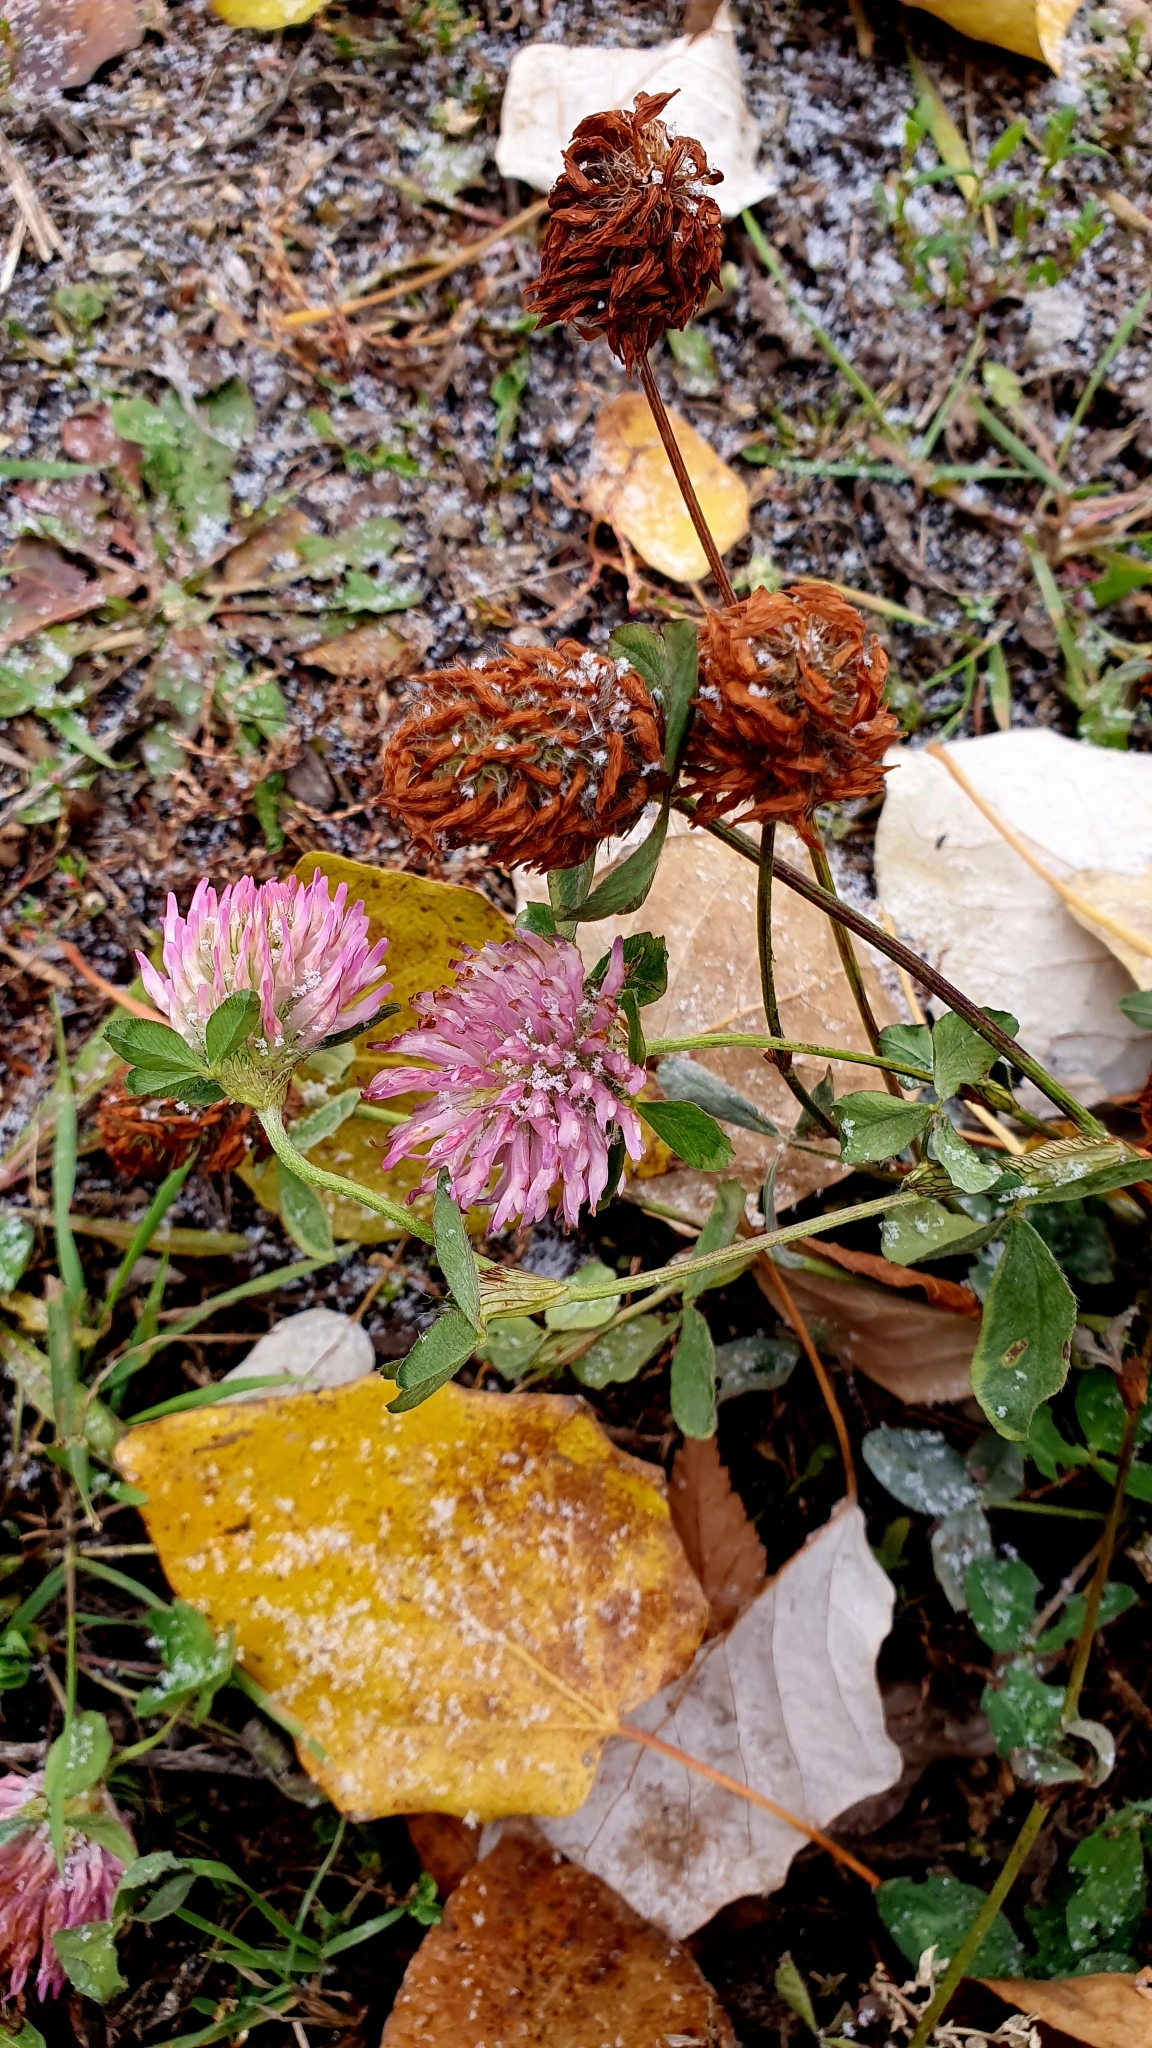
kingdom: Plantae
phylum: Tracheophyta
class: Magnoliopsida
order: Fabales
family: Fabaceae
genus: Trifolium
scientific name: Trifolium pratense
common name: Red clover
